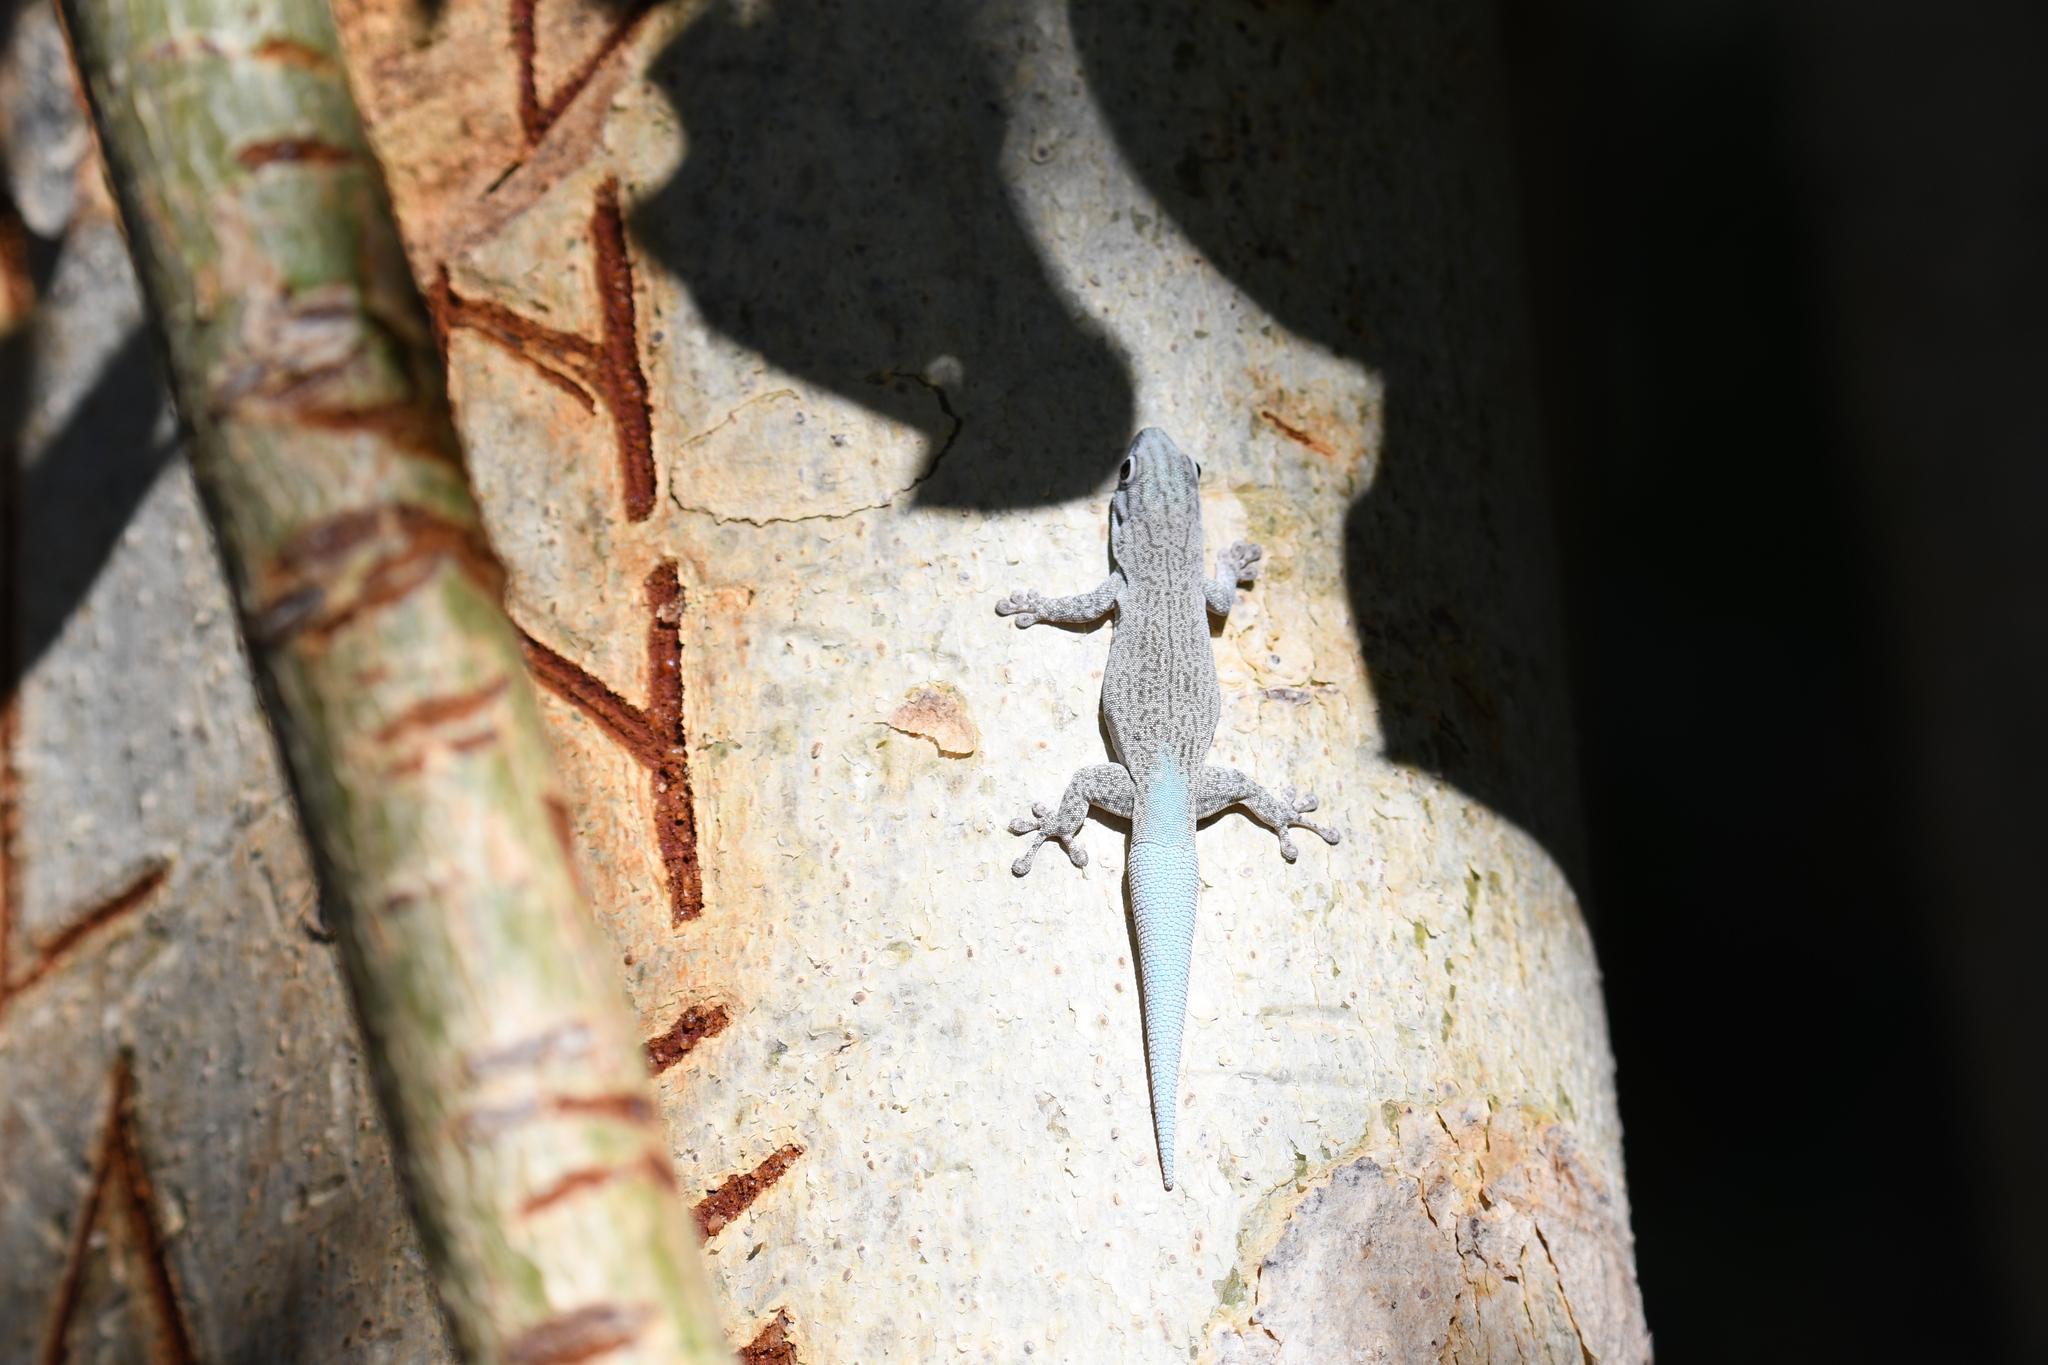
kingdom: Animalia
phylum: Chordata
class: Squamata
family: Gekkonidae
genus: Phelsuma
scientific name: Phelsuma mutabilis
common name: Thick tail gecko
